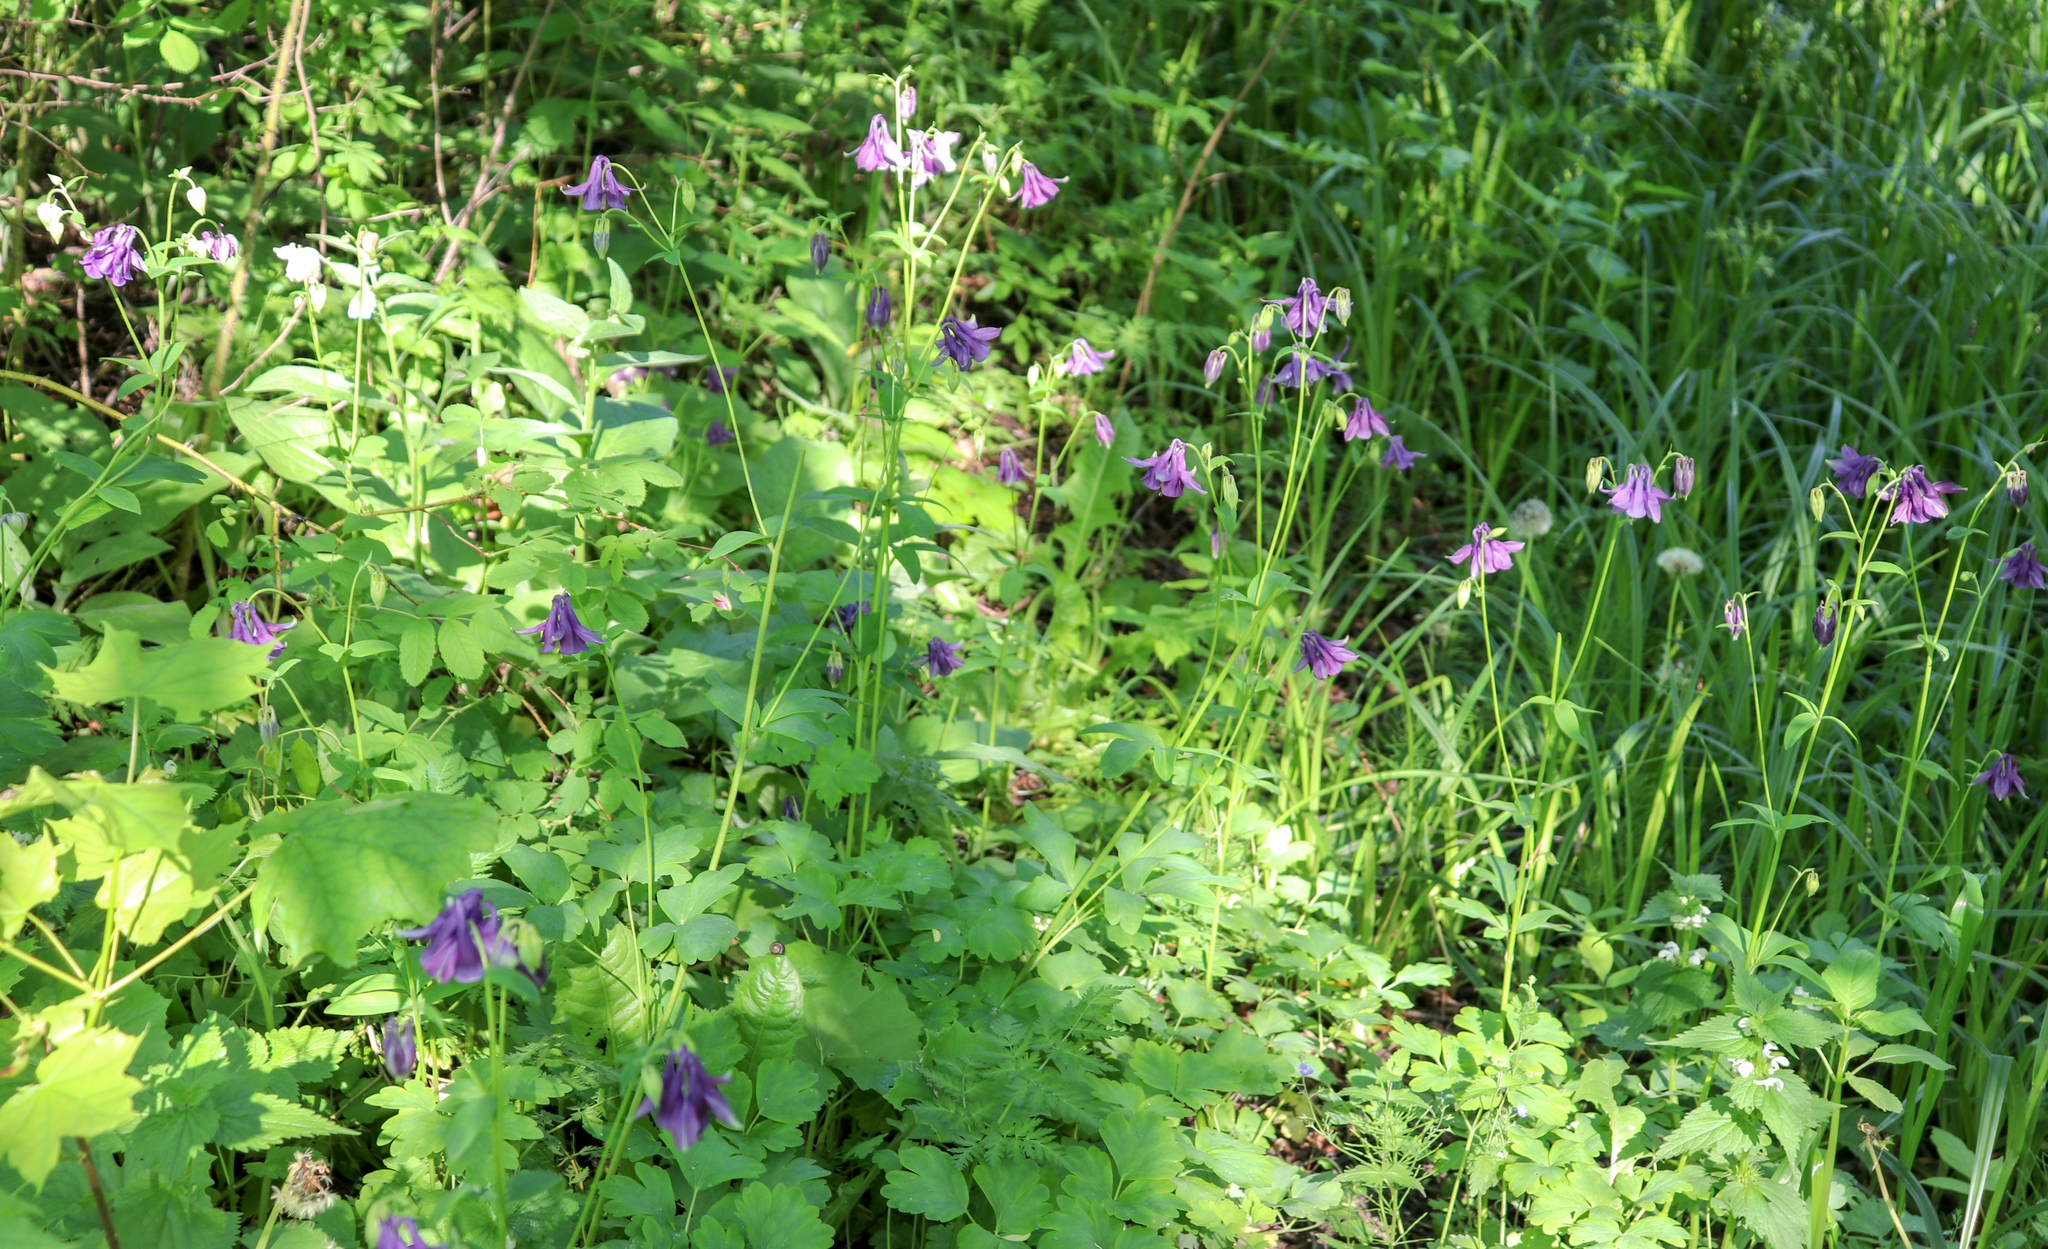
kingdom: Plantae
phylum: Tracheophyta
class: Magnoliopsida
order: Ranunculales
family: Ranunculaceae
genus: Aquilegia
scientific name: Aquilegia vulgaris
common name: Columbine
